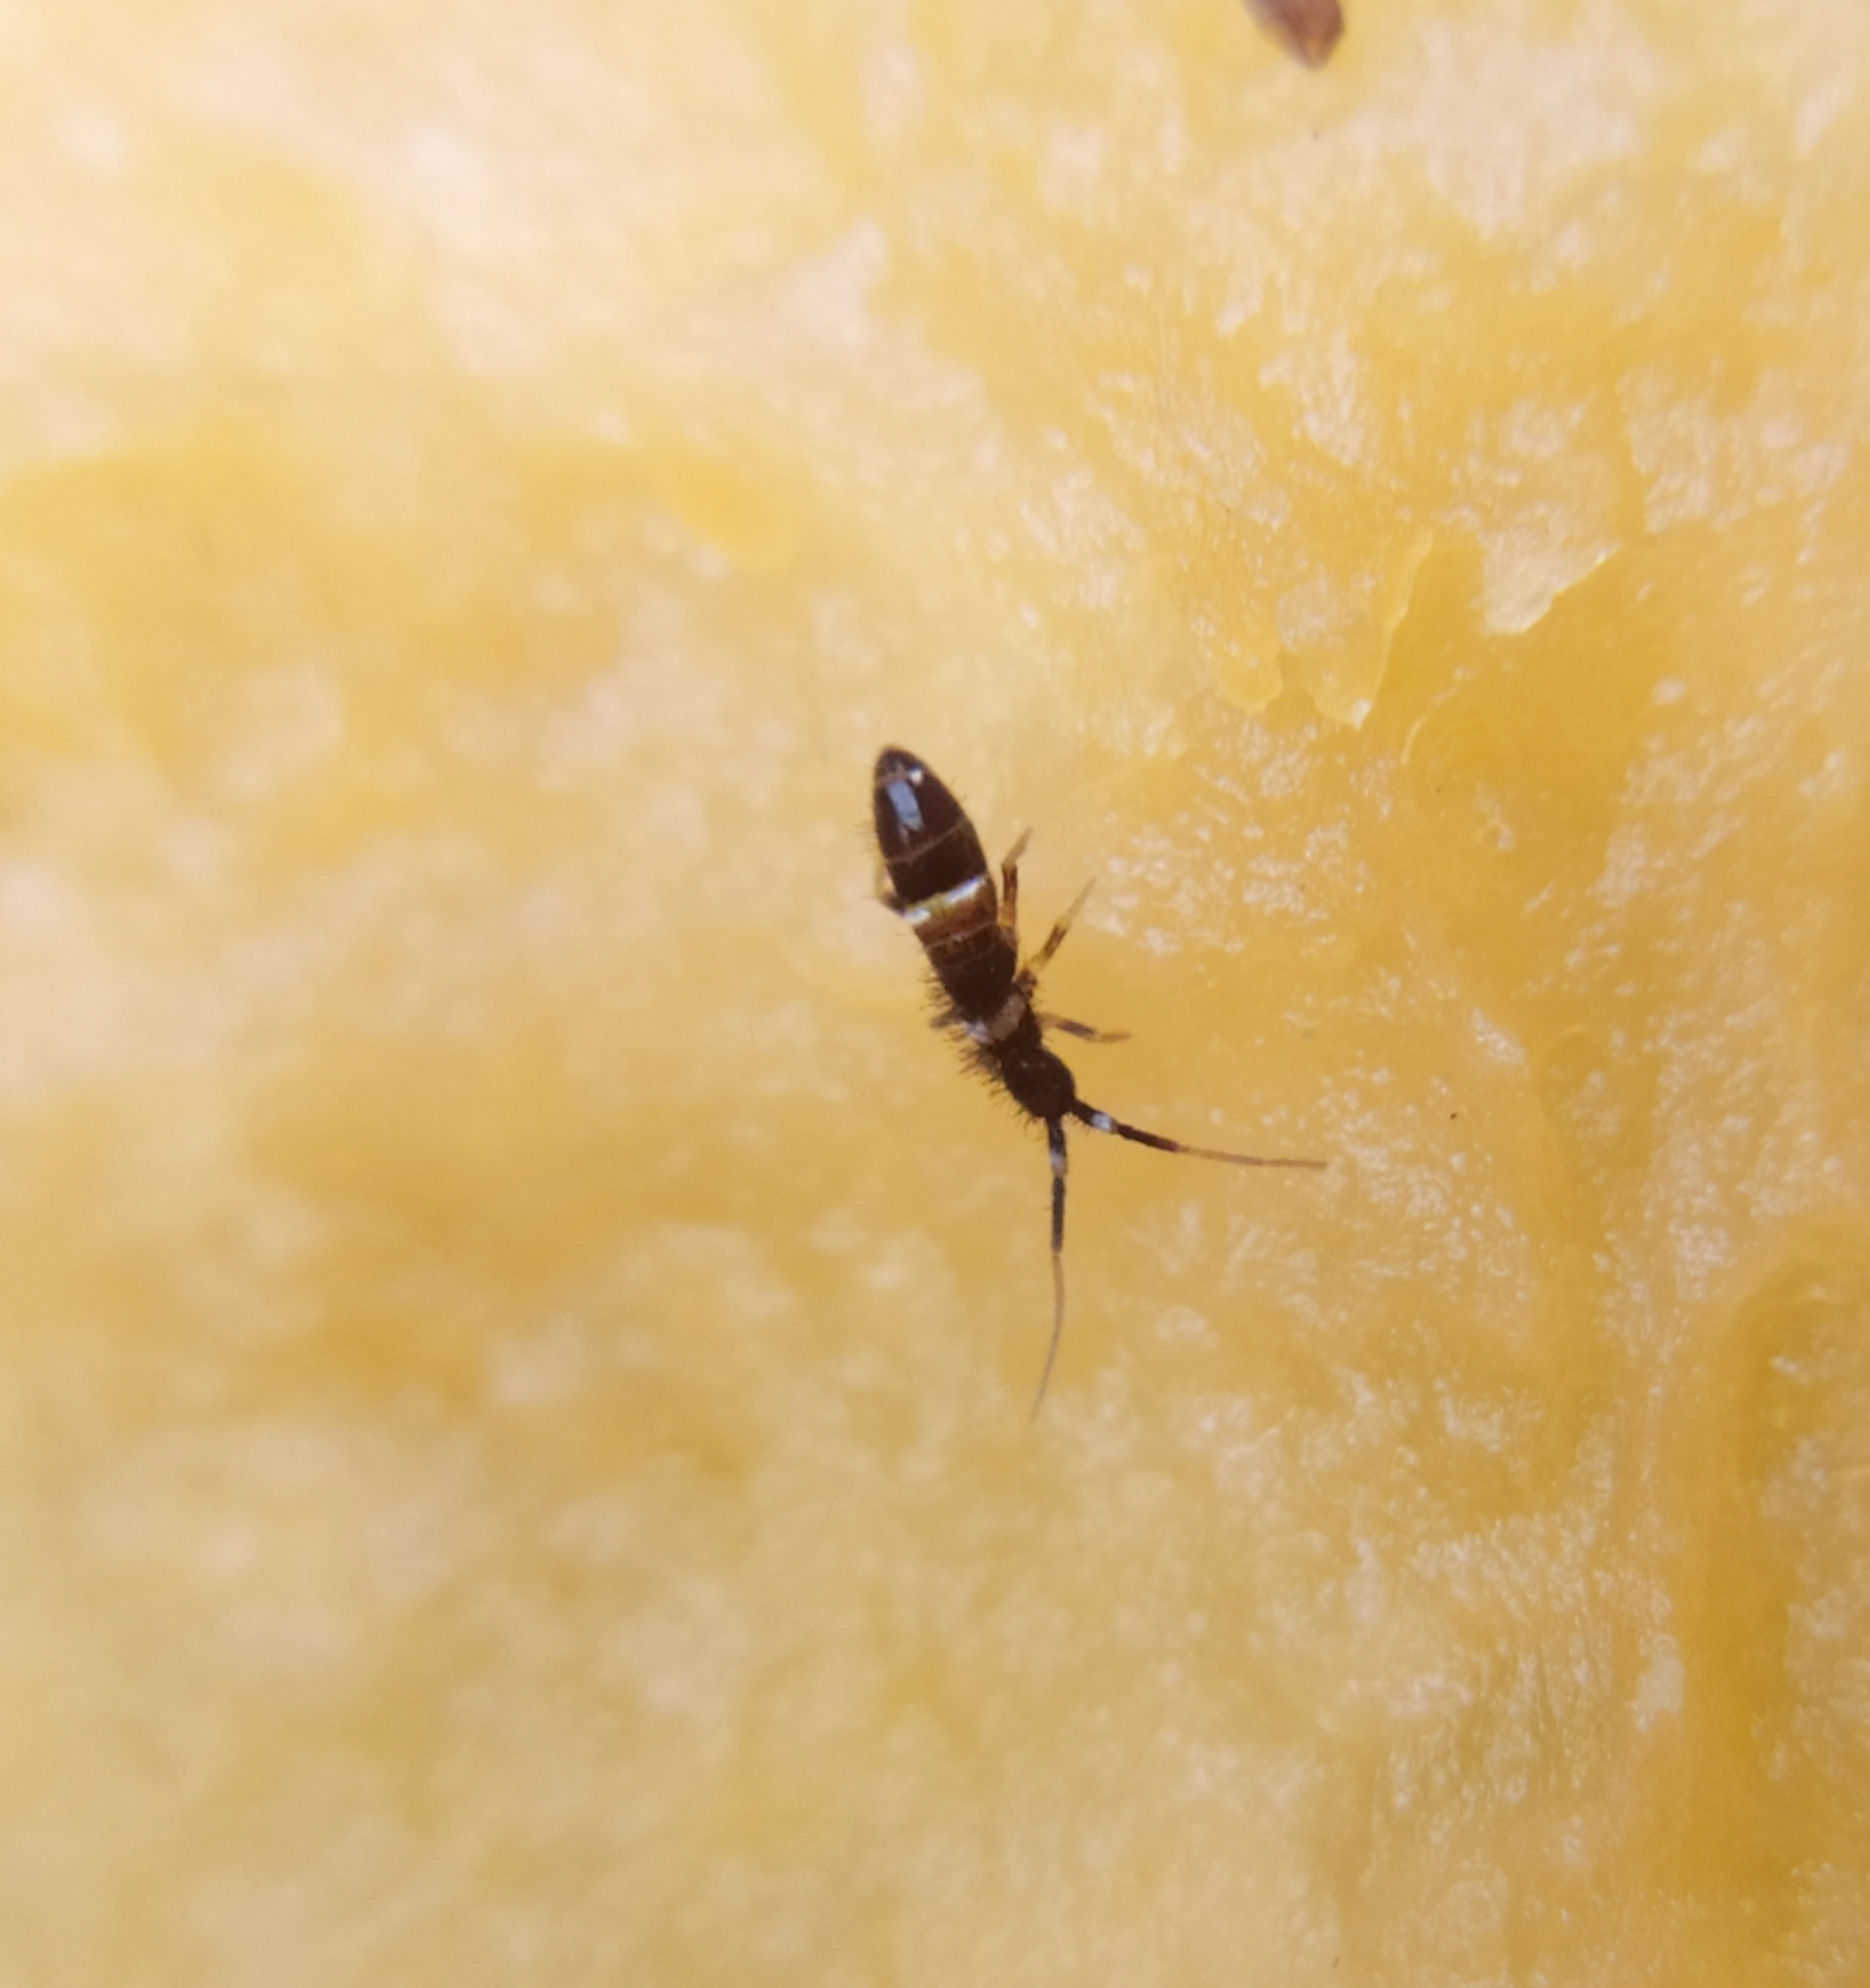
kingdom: Animalia
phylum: Arthropoda
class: Collembola
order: Entomobryomorpha
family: Orchesellidae
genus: Orchesella
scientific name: Orchesella cincta
